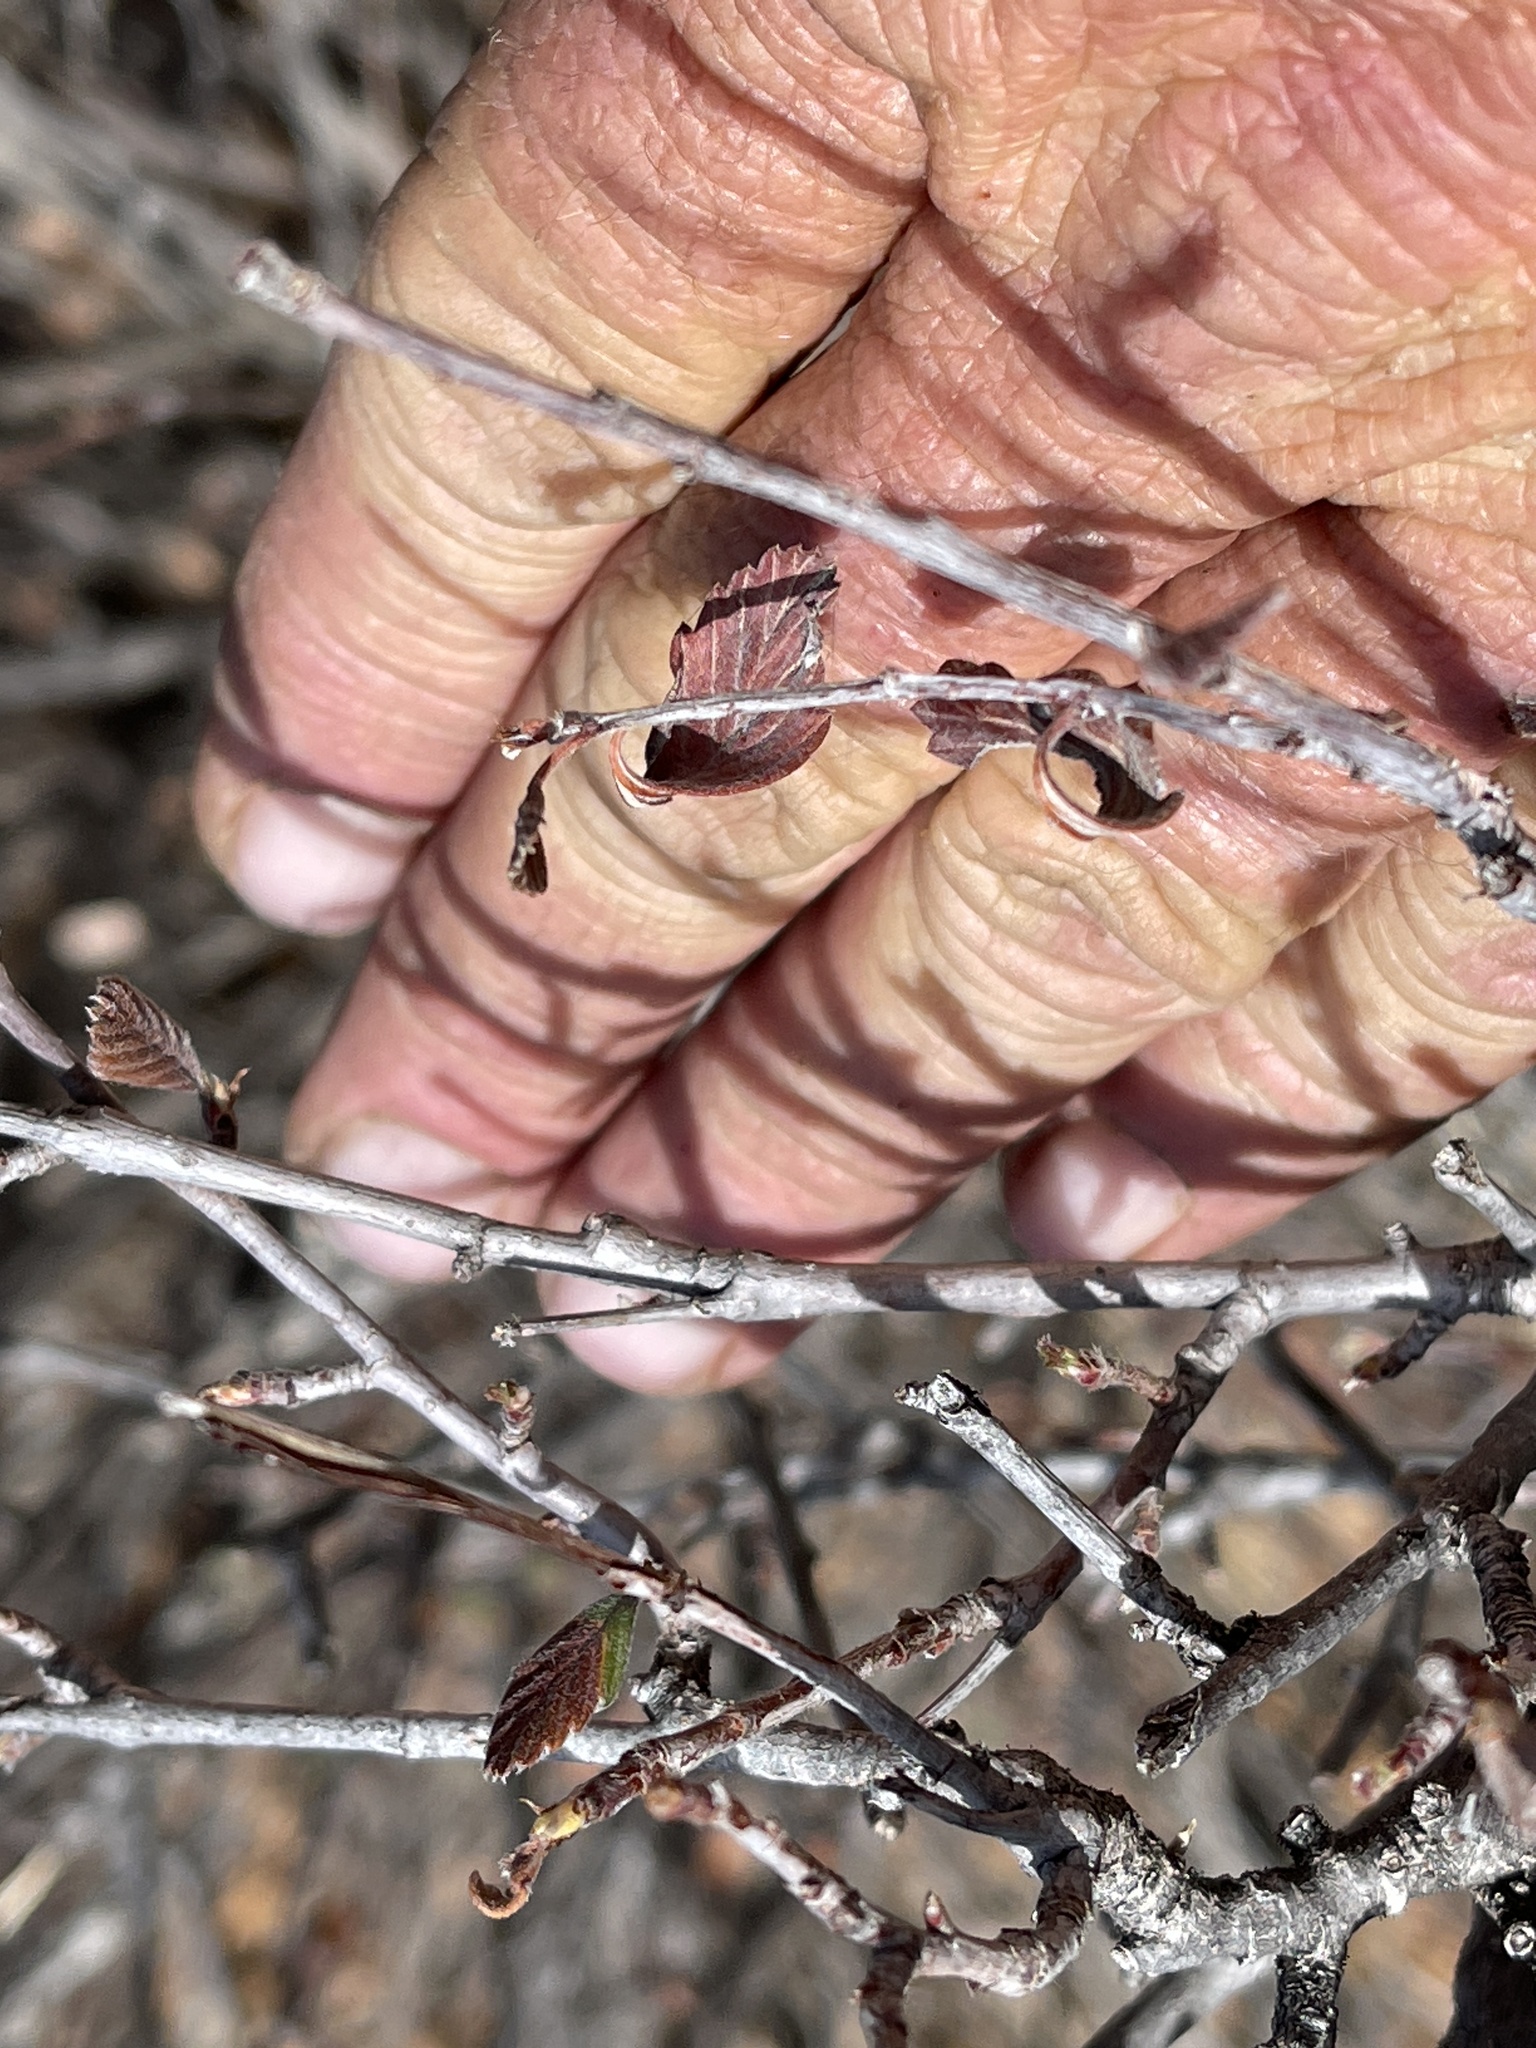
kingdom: Plantae
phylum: Tracheophyta
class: Magnoliopsida
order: Rosales
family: Rosaceae
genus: Cercocarpus
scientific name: Cercocarpus montanus
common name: Alder-leaf cercocarpus
